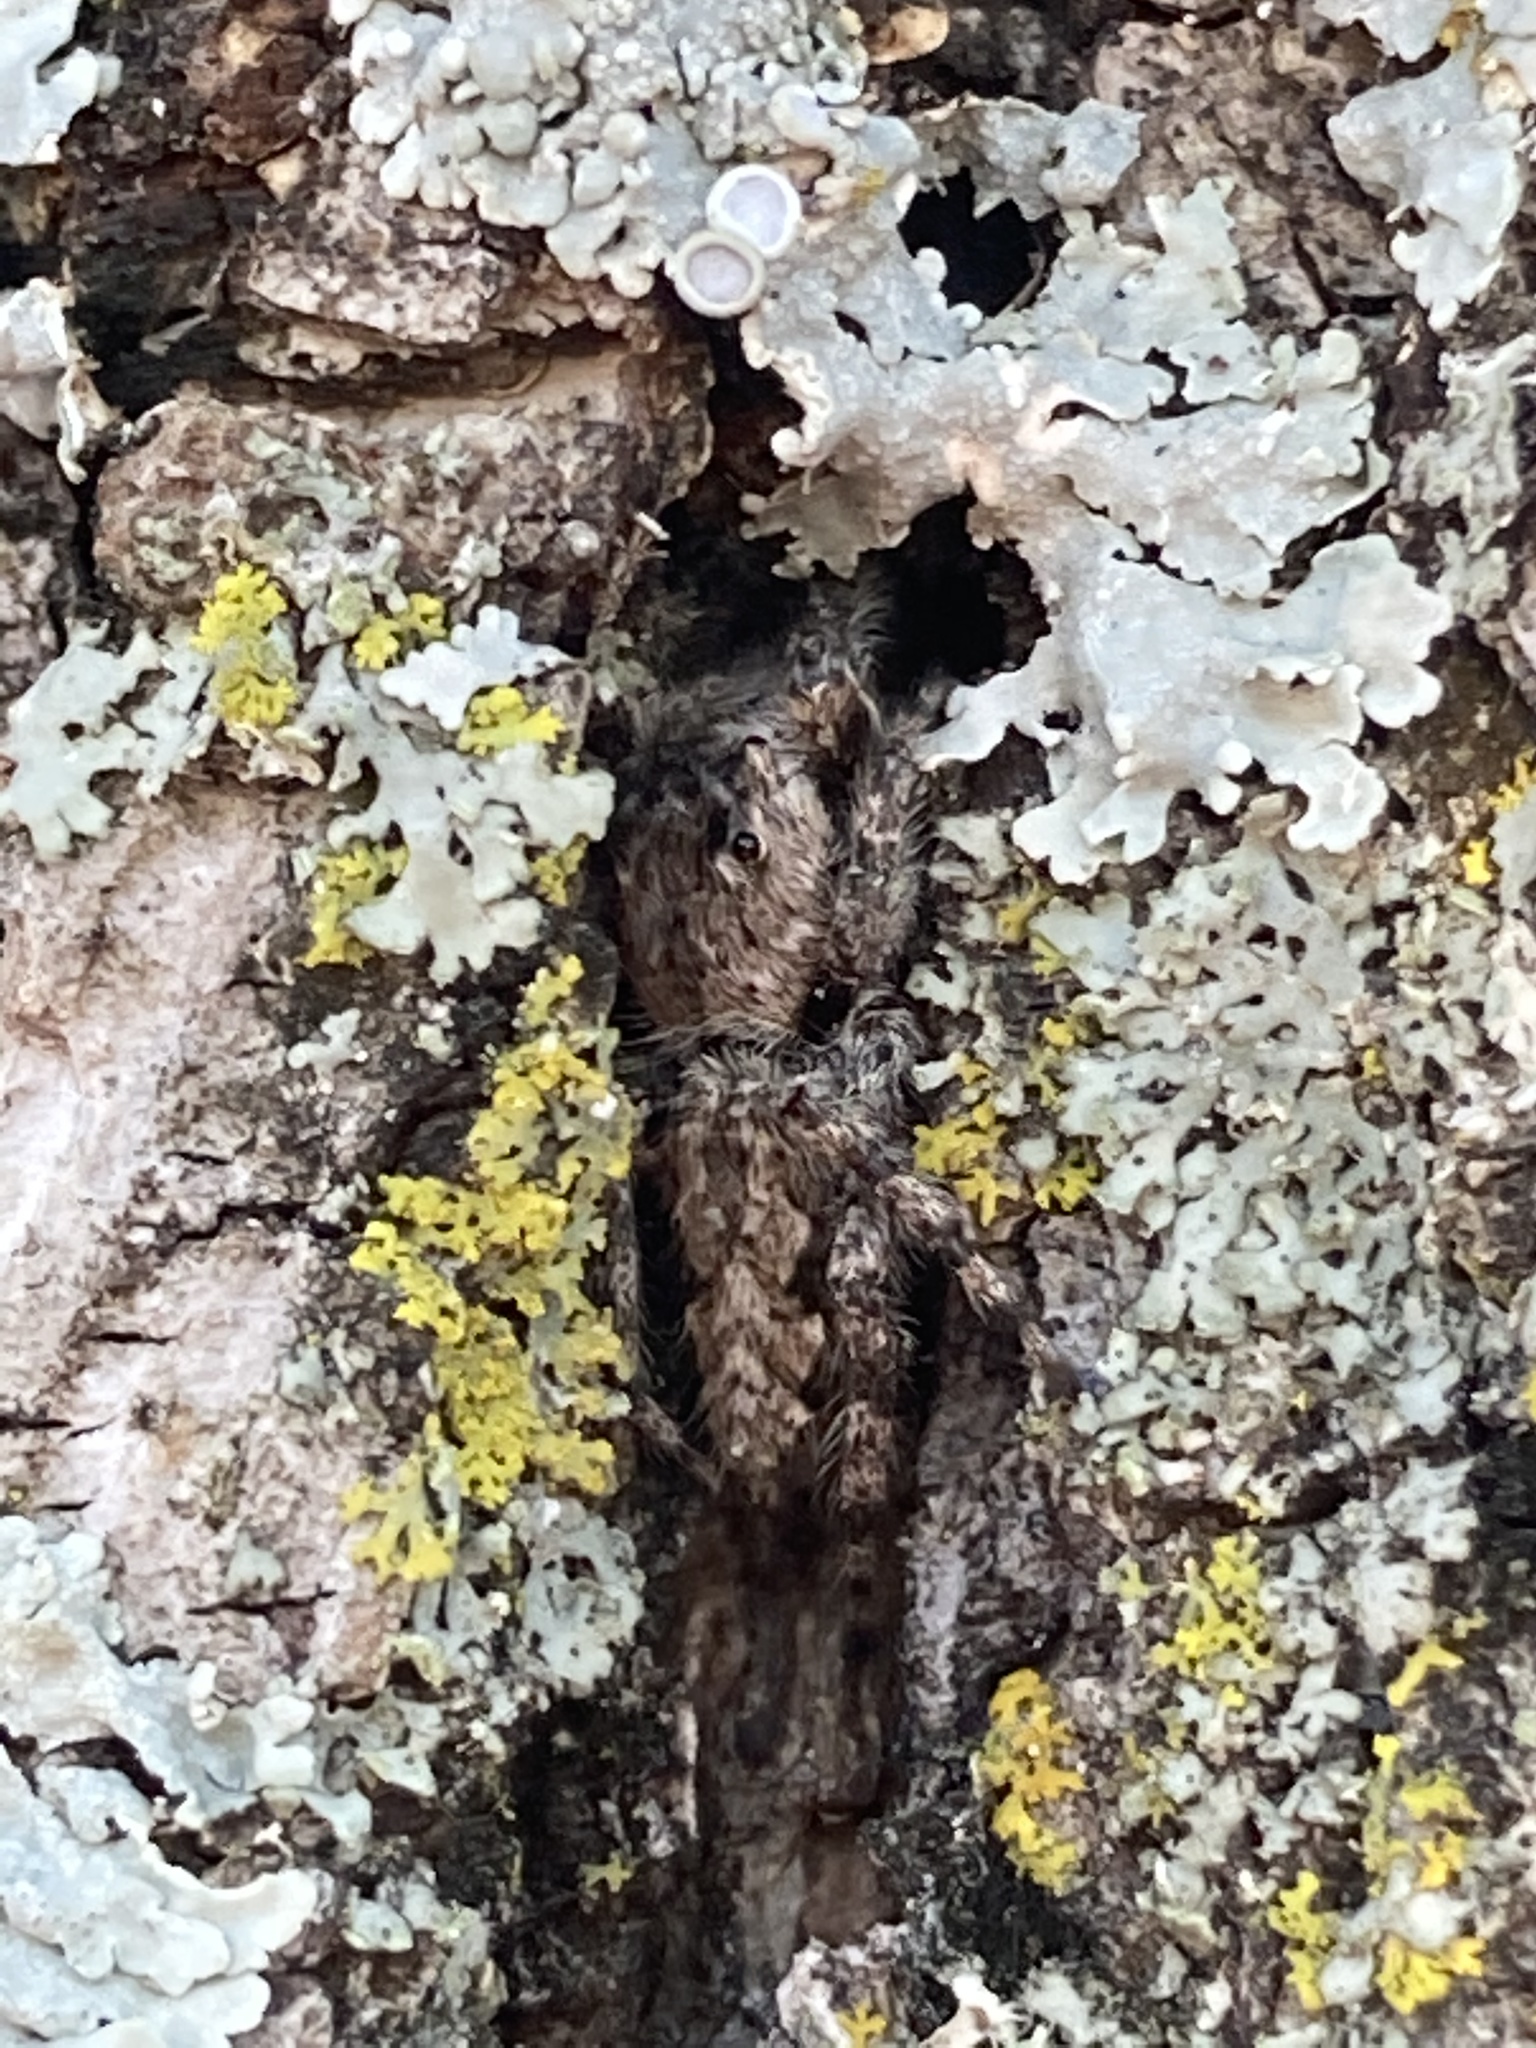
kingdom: Animalia
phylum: Arthropoda
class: Arachnida
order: Araneae
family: Salticidae
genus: Platycryptus
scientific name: Platycryptus undatus
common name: Tan jumping spider
